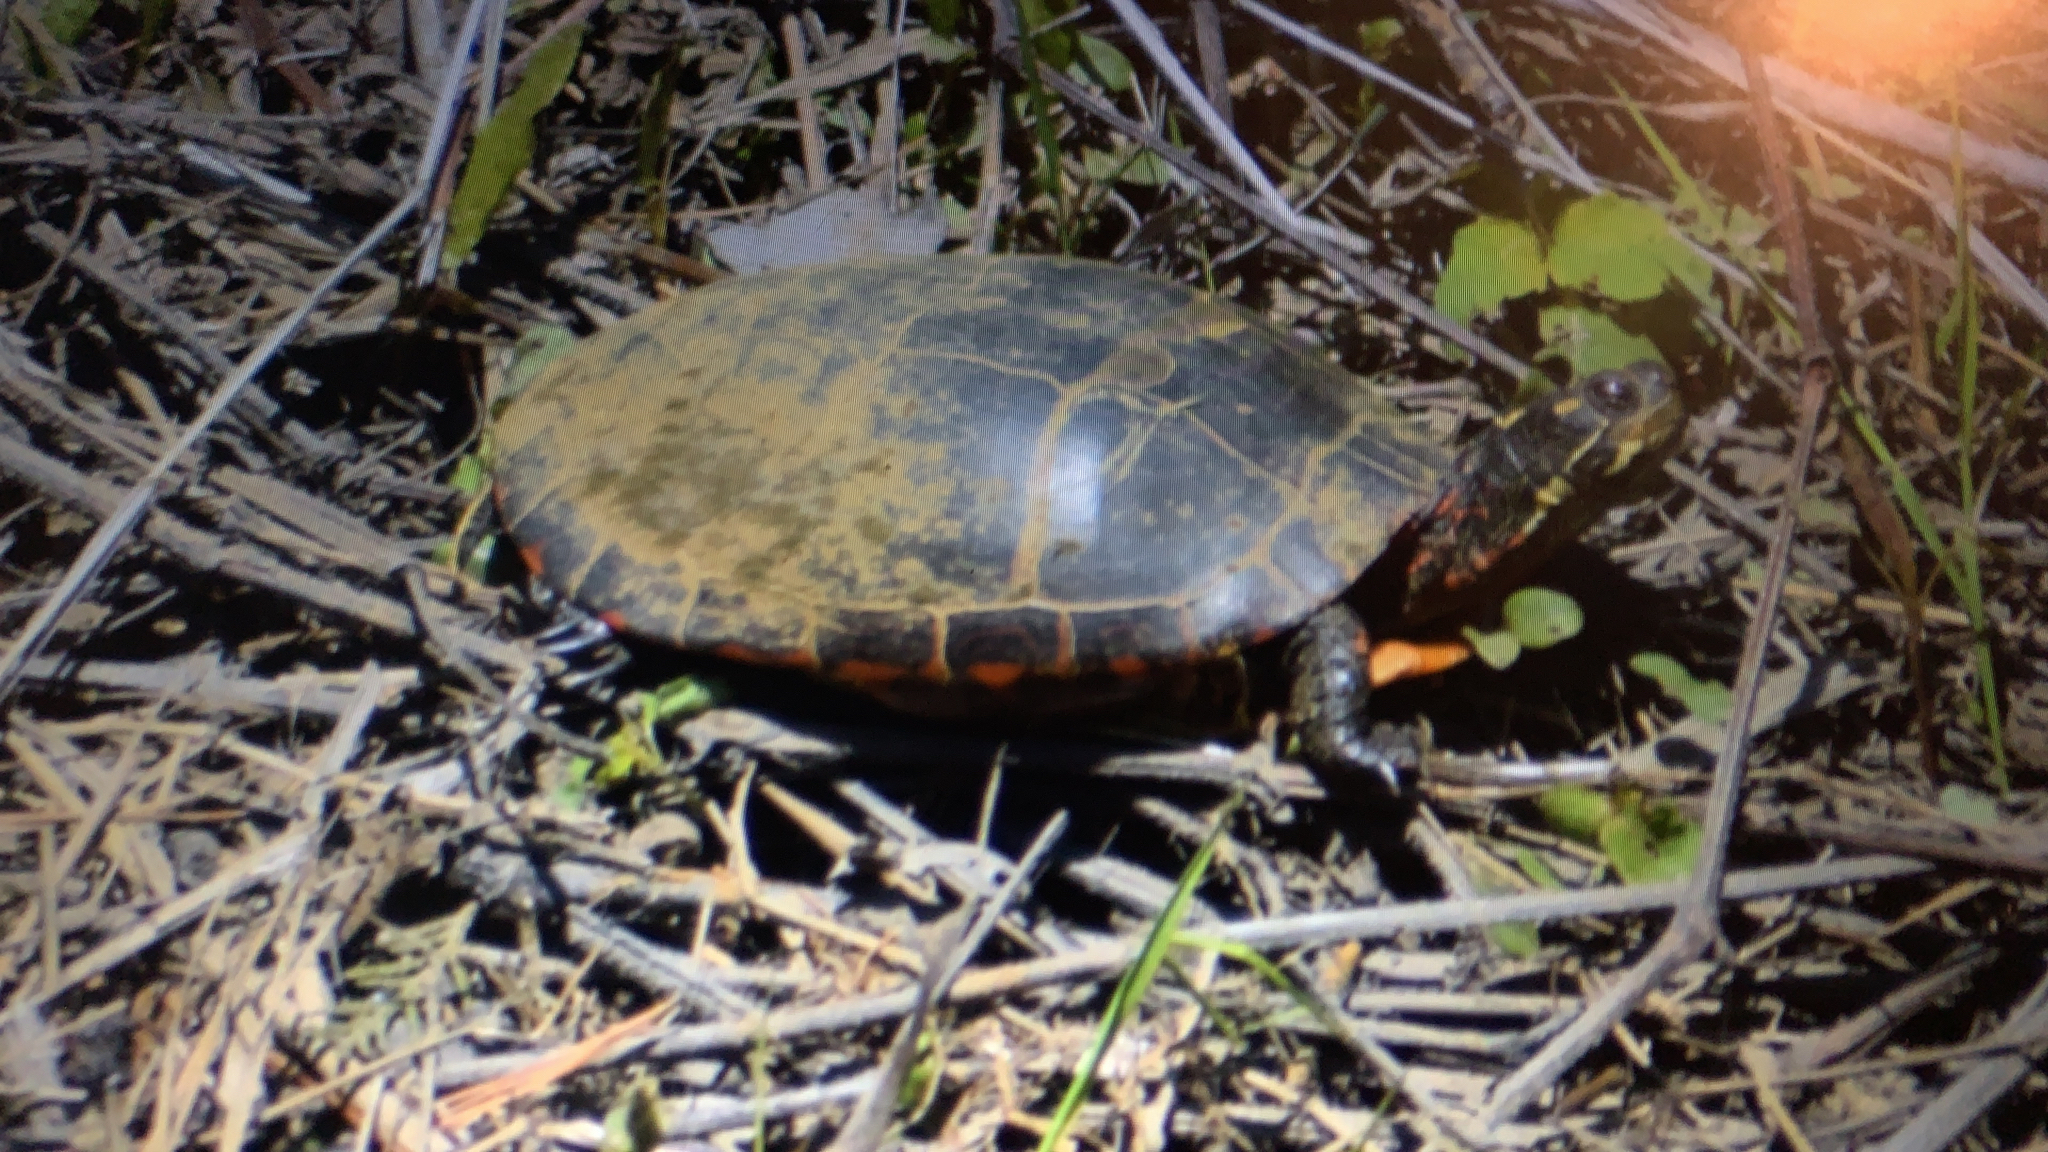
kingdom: Animalia
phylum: Chordata
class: Testudines
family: Emydidae
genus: Chrysemys
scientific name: Chrysemys picta
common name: Painted turtle
